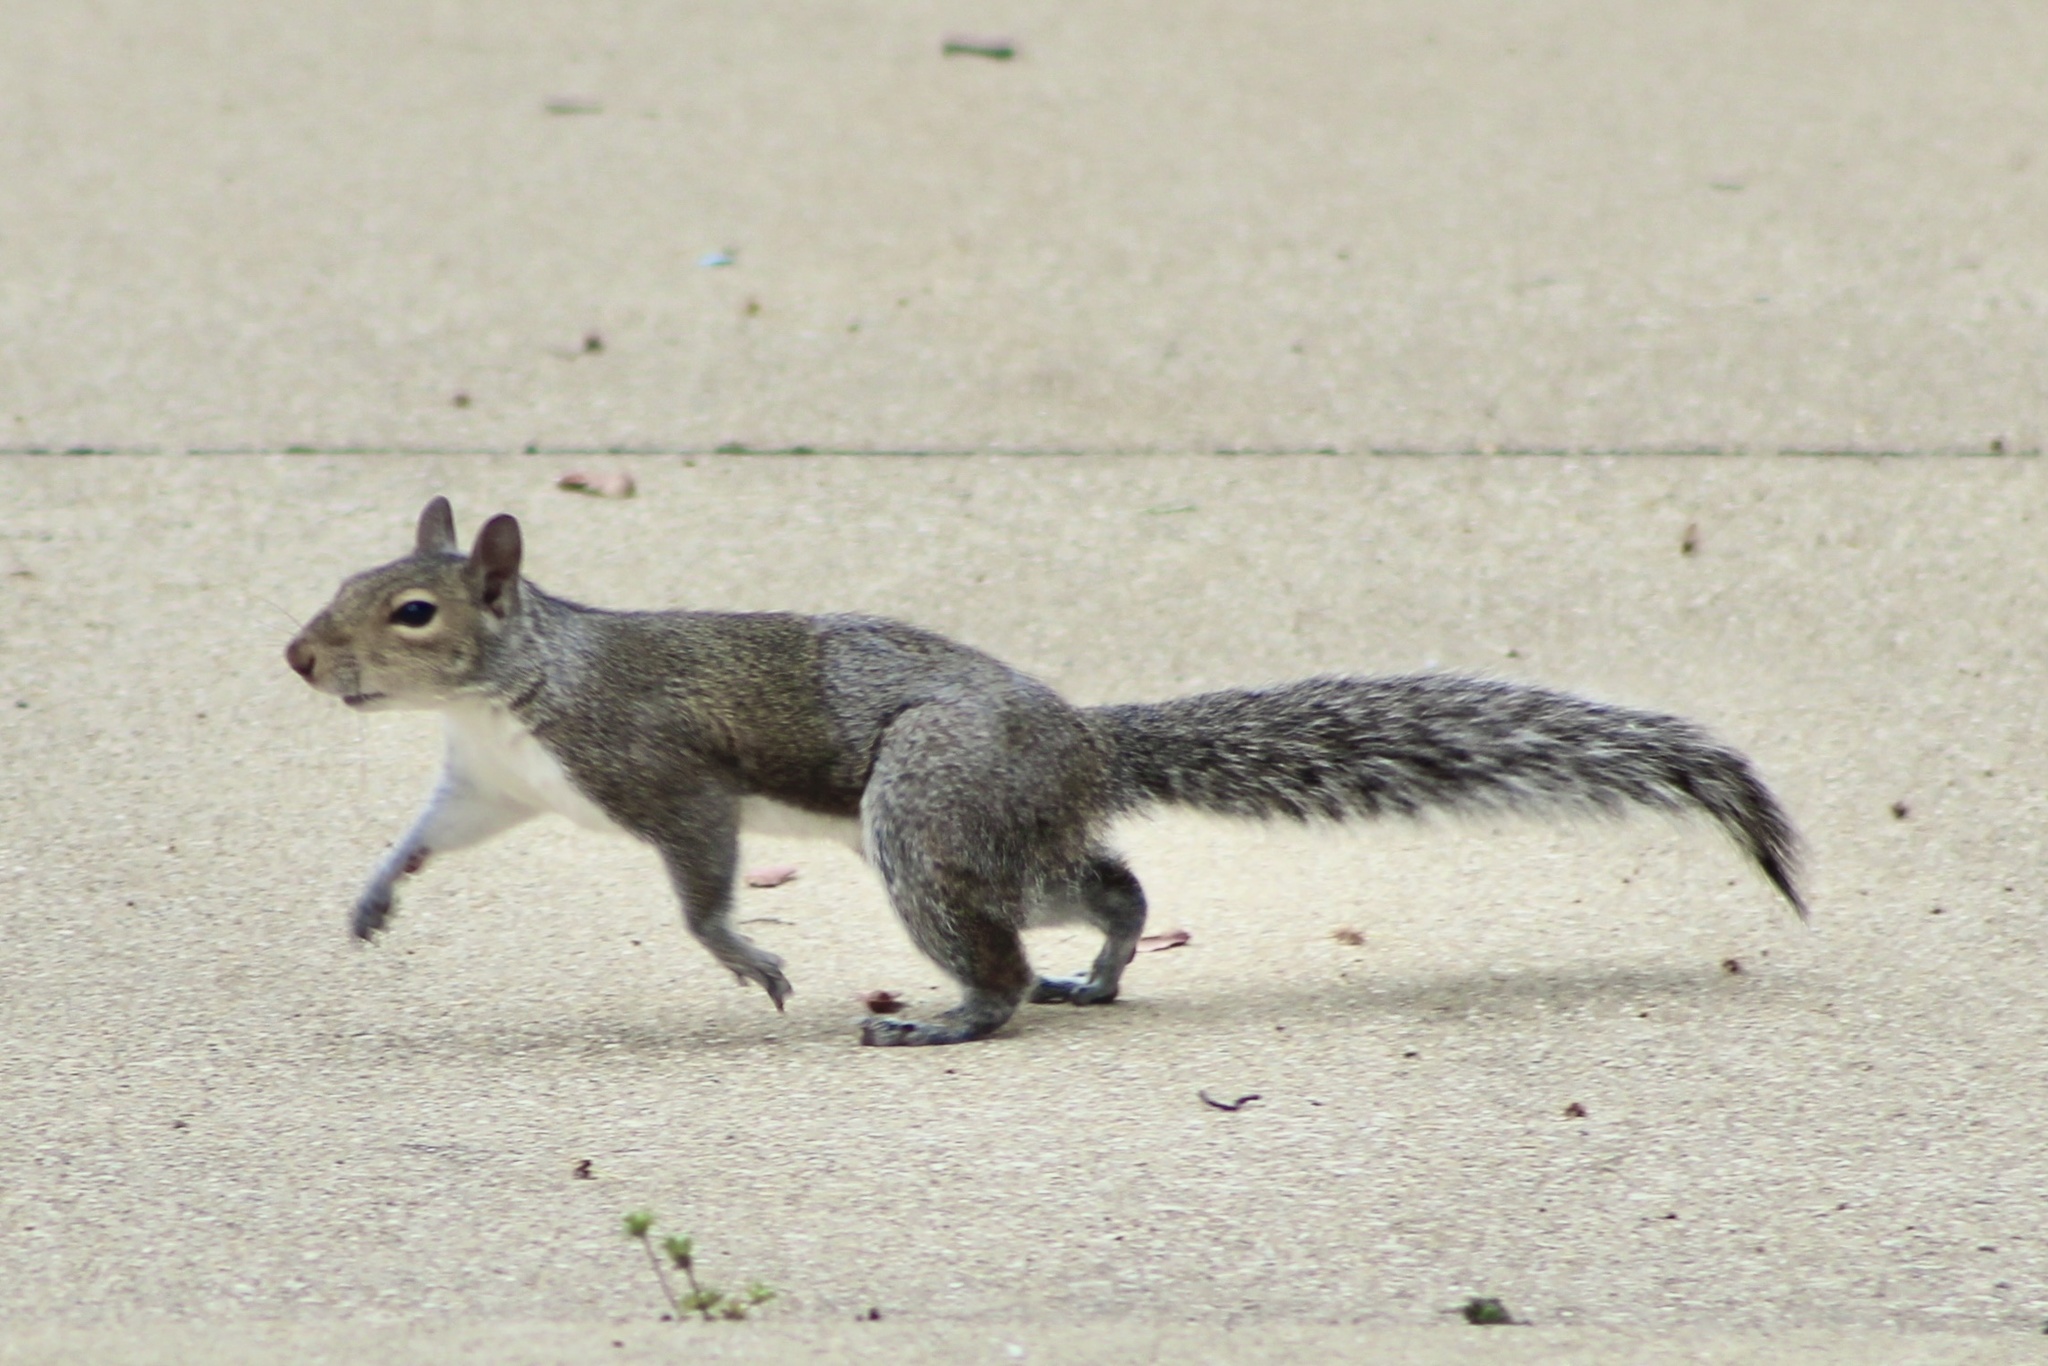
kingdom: Animalia
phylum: Chordata
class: Mammalia
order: Rodentia
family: Sciuridae
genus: Sciurus
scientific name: Sciurus carolinensis
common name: Eastern gray squirrel
